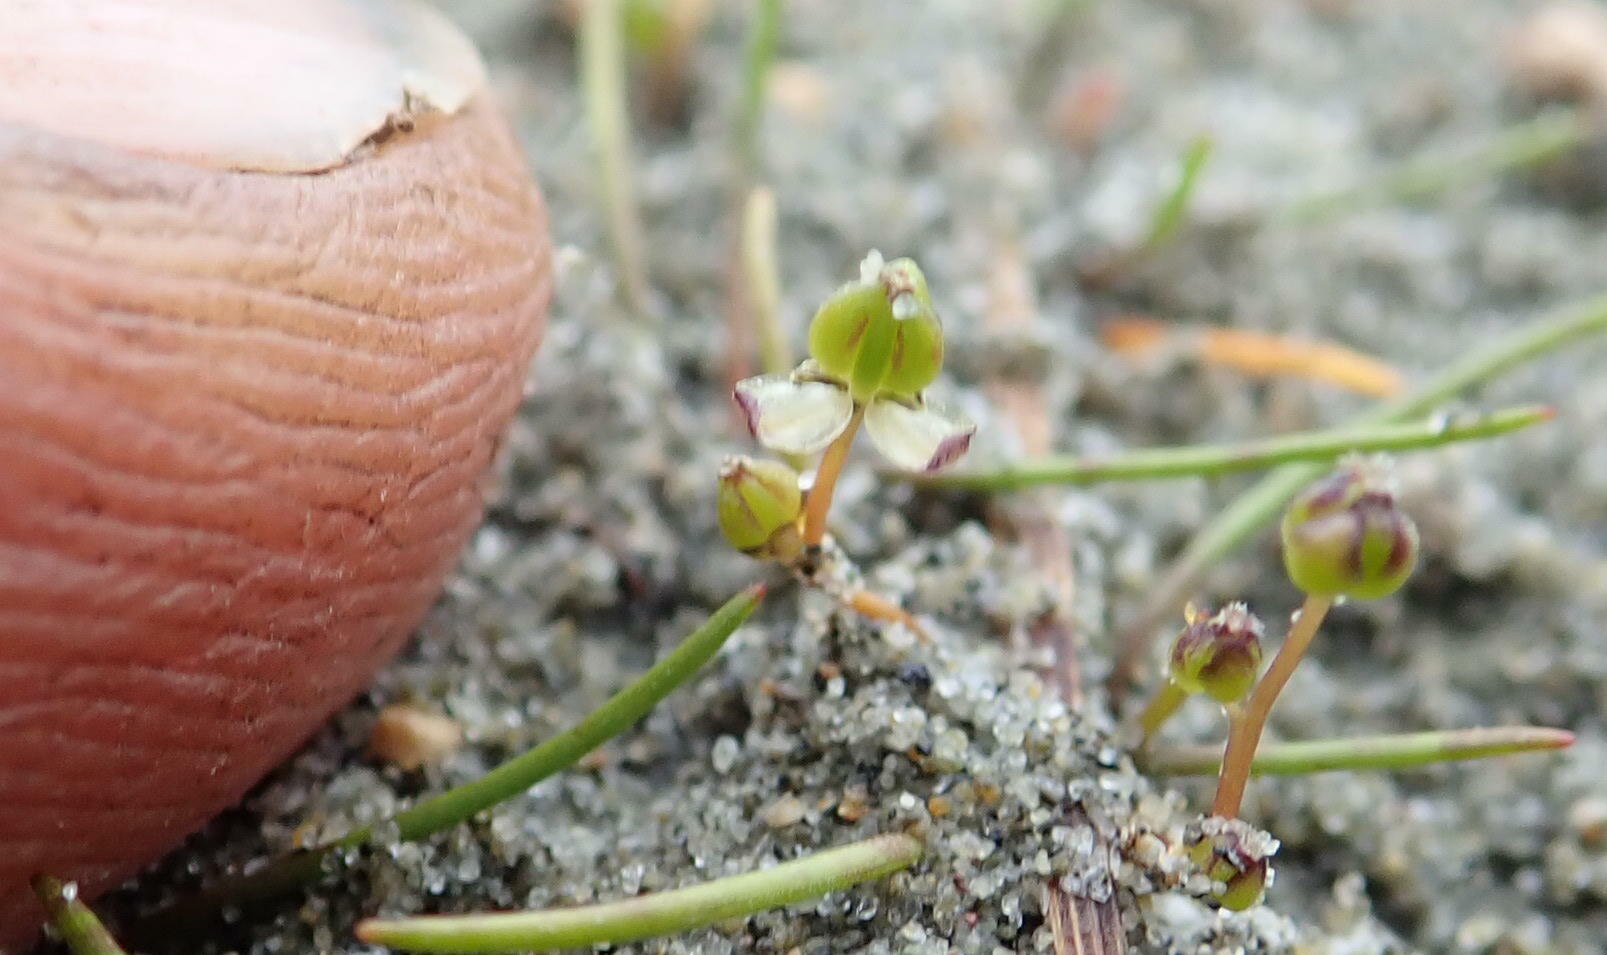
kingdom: Plantae
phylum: Tracheophyta
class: Liliopsida
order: Alismatales
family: Juncaginaceae
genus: Triglochin
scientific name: Triglochin striata
